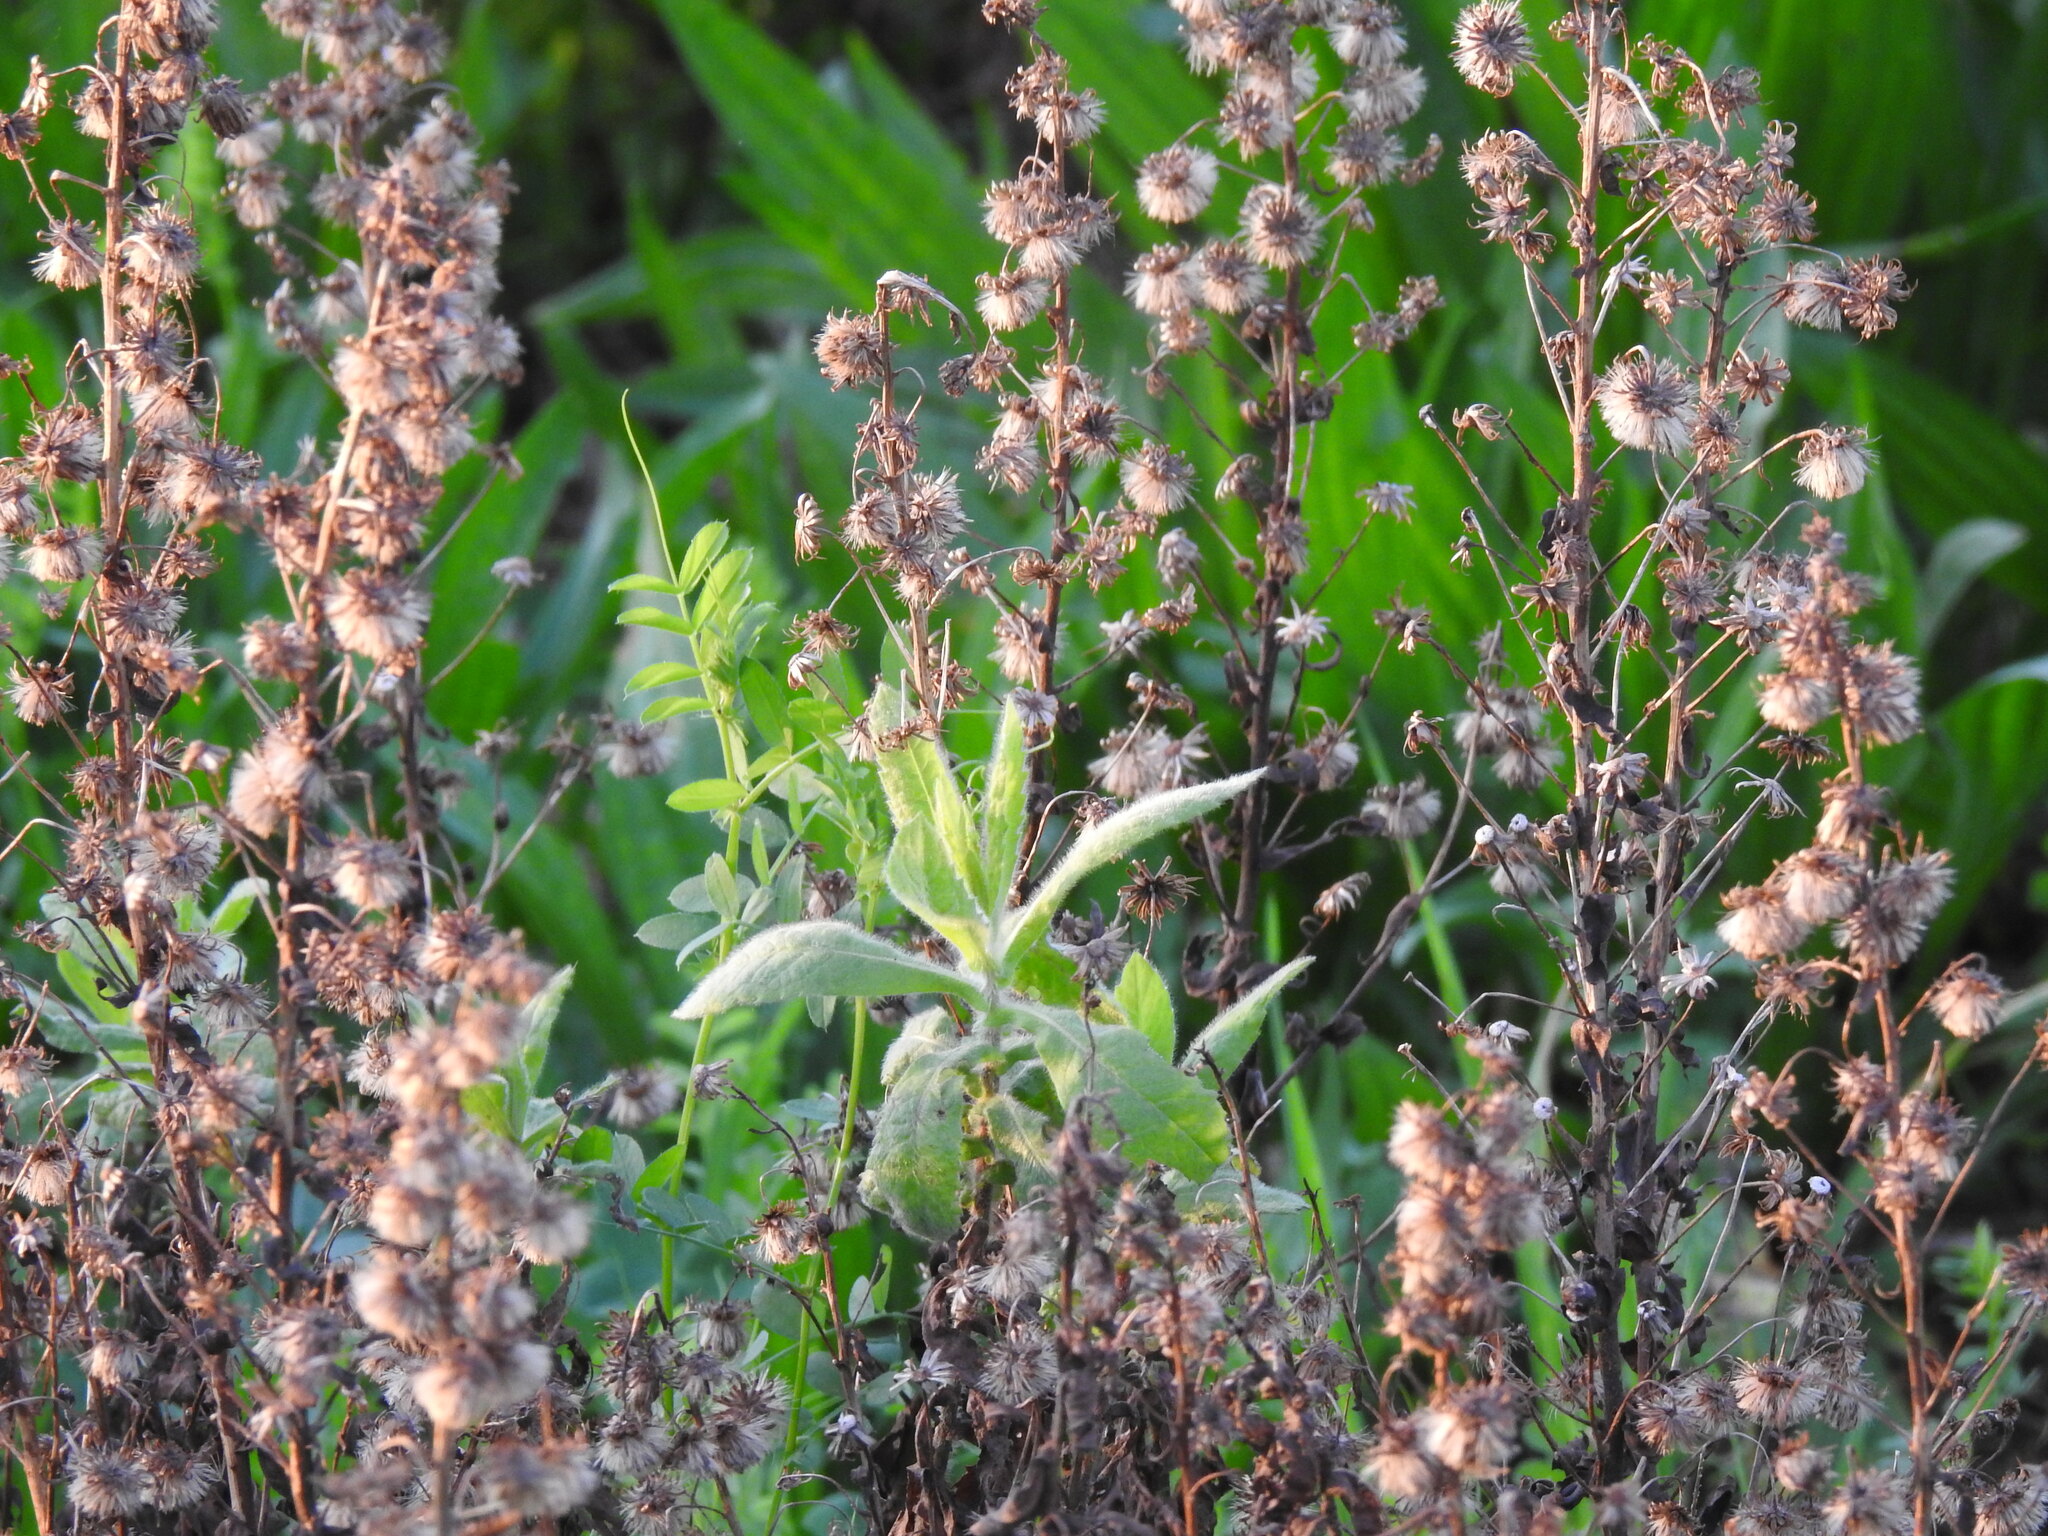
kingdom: Plantae
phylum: Tracheophyta
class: Magnoliopsida
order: Asterales
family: Asteraceae
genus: Dittrichia
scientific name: Dittrichia viscosa
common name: Woody fleabane
